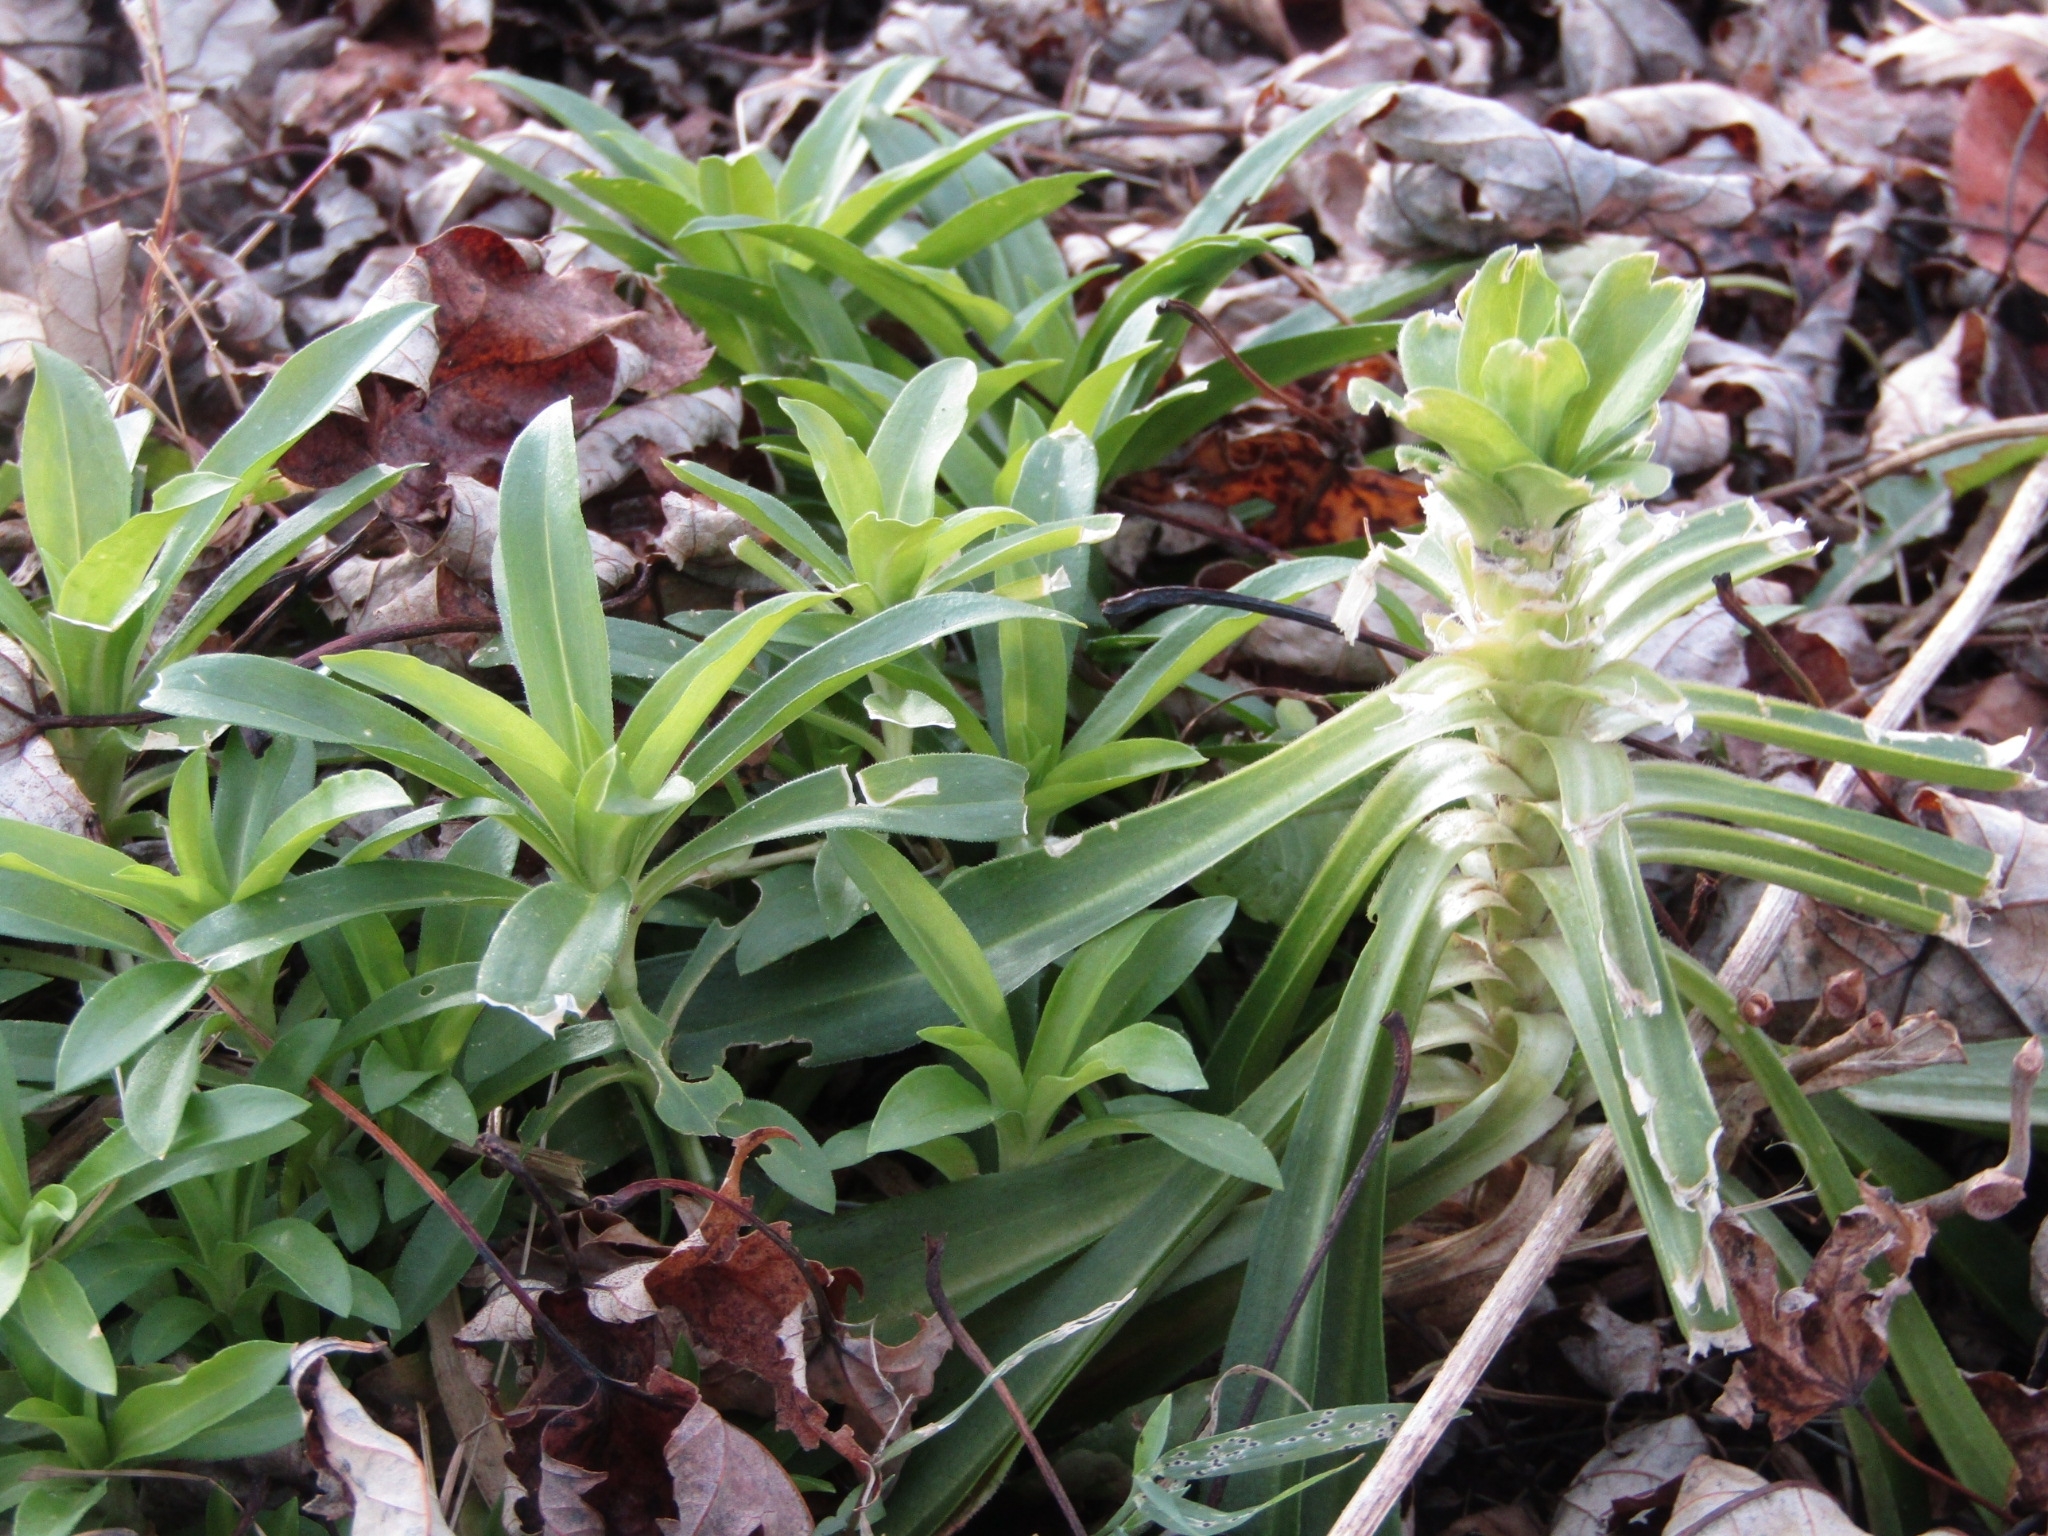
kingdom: Plantae
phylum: Tracheophyta
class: Magnoliopsida
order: Caryophyllales
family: Caryophyllaceae
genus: Dianthus
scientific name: Dianthus barbatus
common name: Sweet-william
